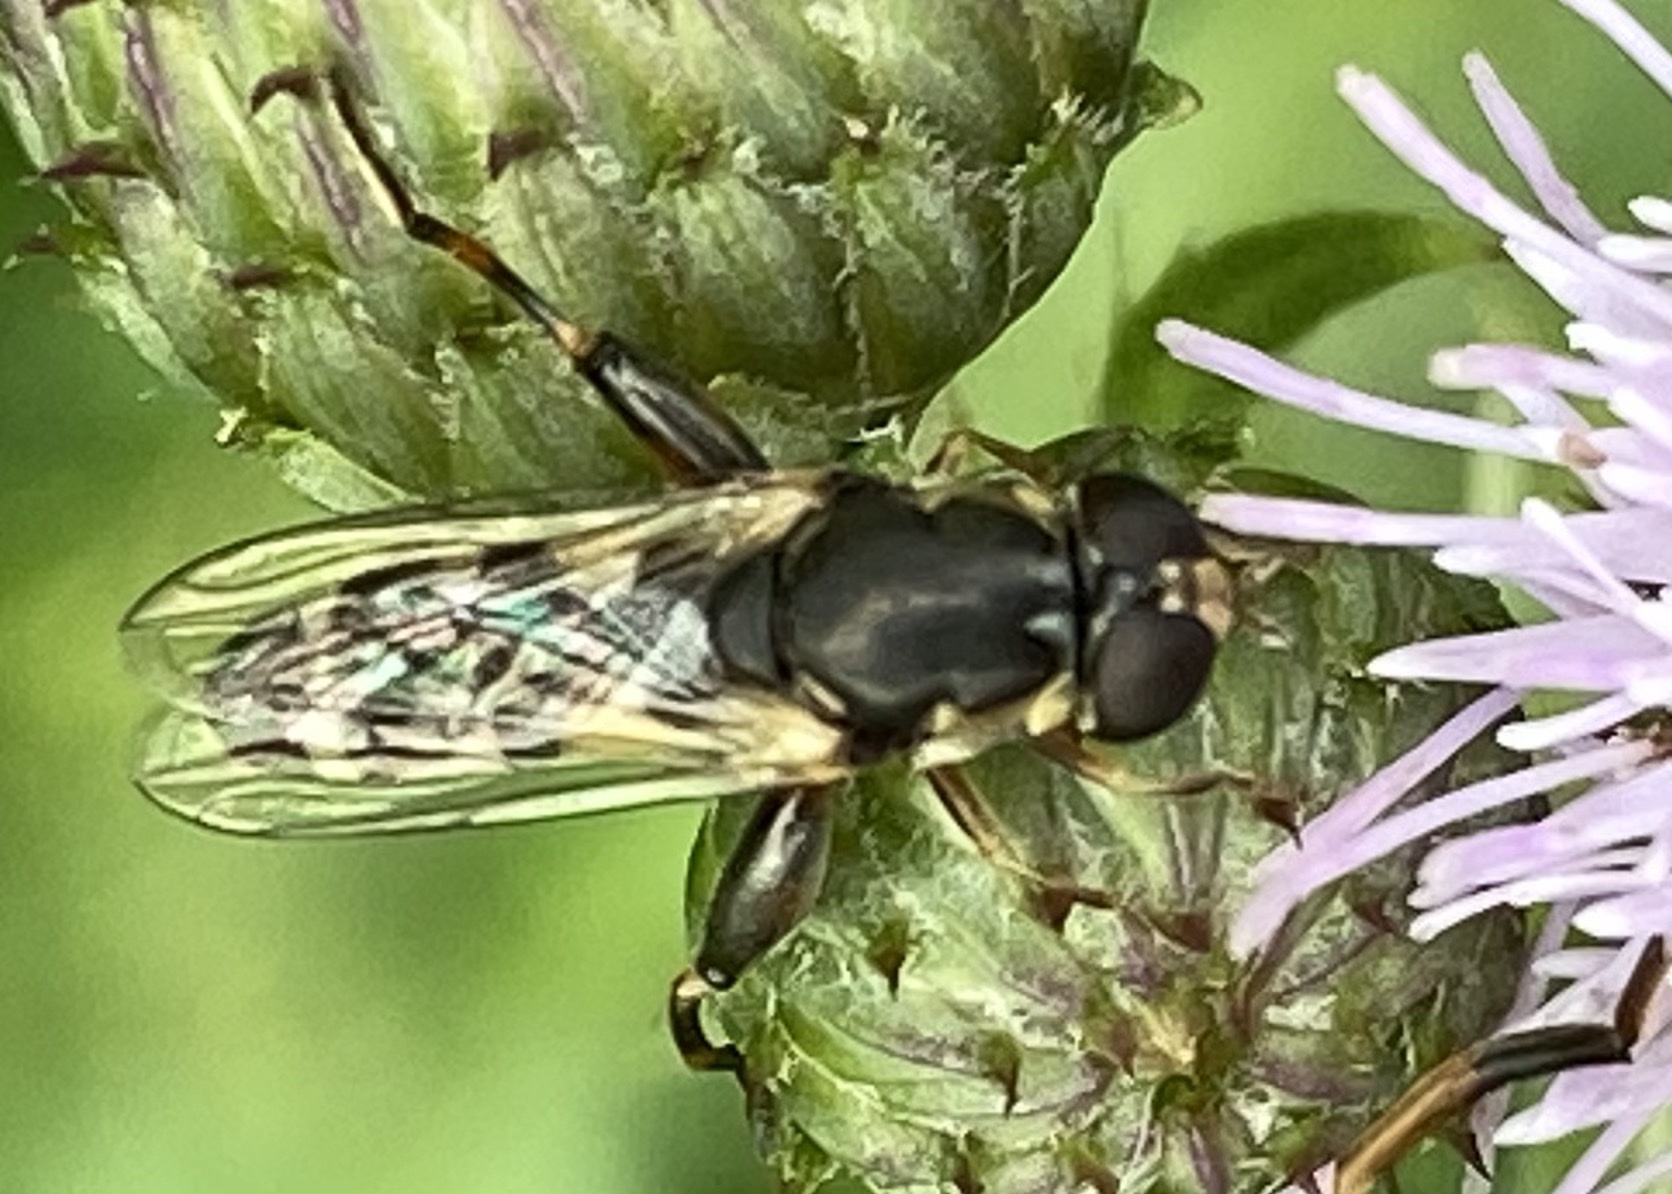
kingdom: Animalia
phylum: Arthropoda
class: Insecta
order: Diptera
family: Syrphidae
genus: Syritta
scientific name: Syritta pipiens
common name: Hover fly
